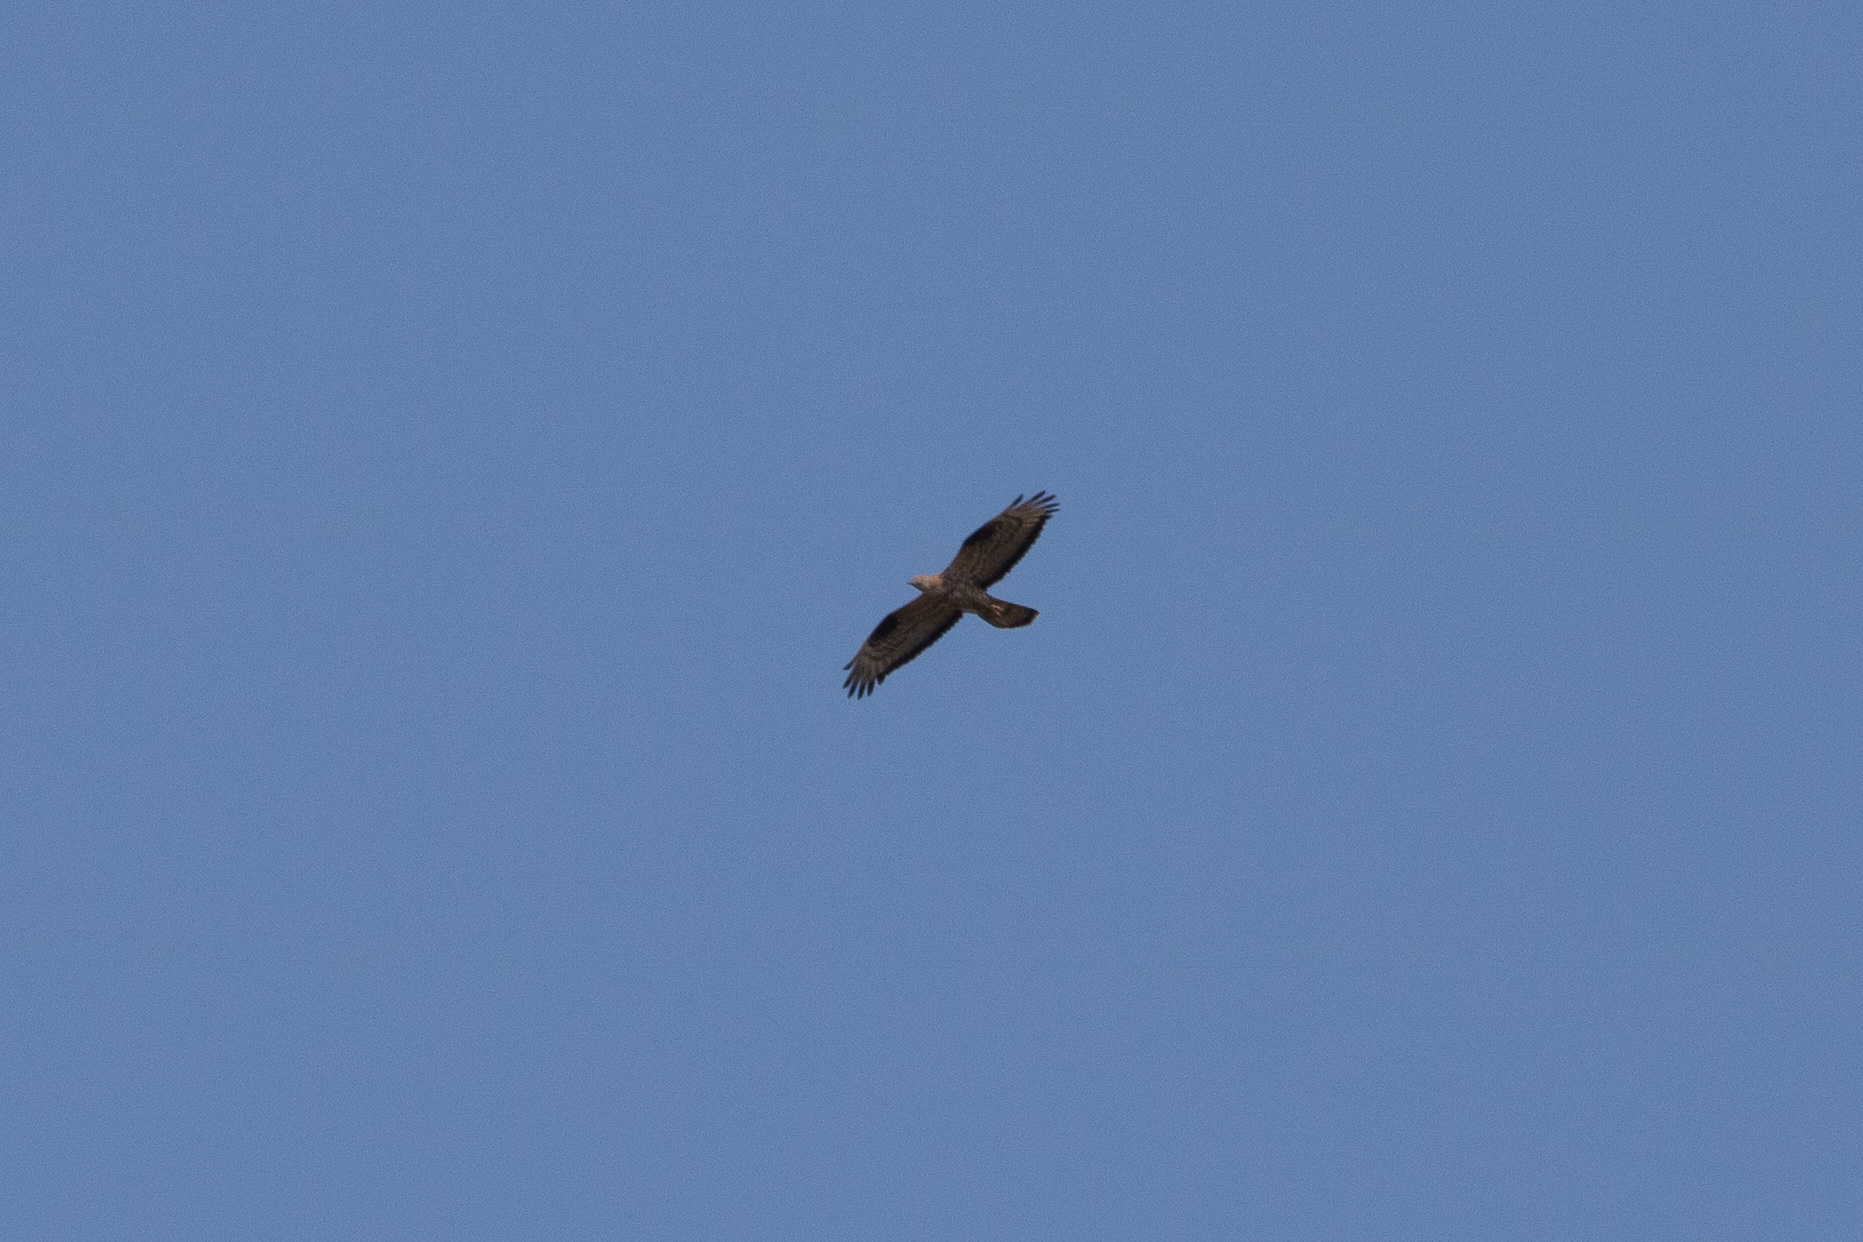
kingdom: Animalia
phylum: Chordata
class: Aves
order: Accipitriformes
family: Accipitridae
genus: Pernis
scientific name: Pernis apivorus
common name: European honey buzzard
